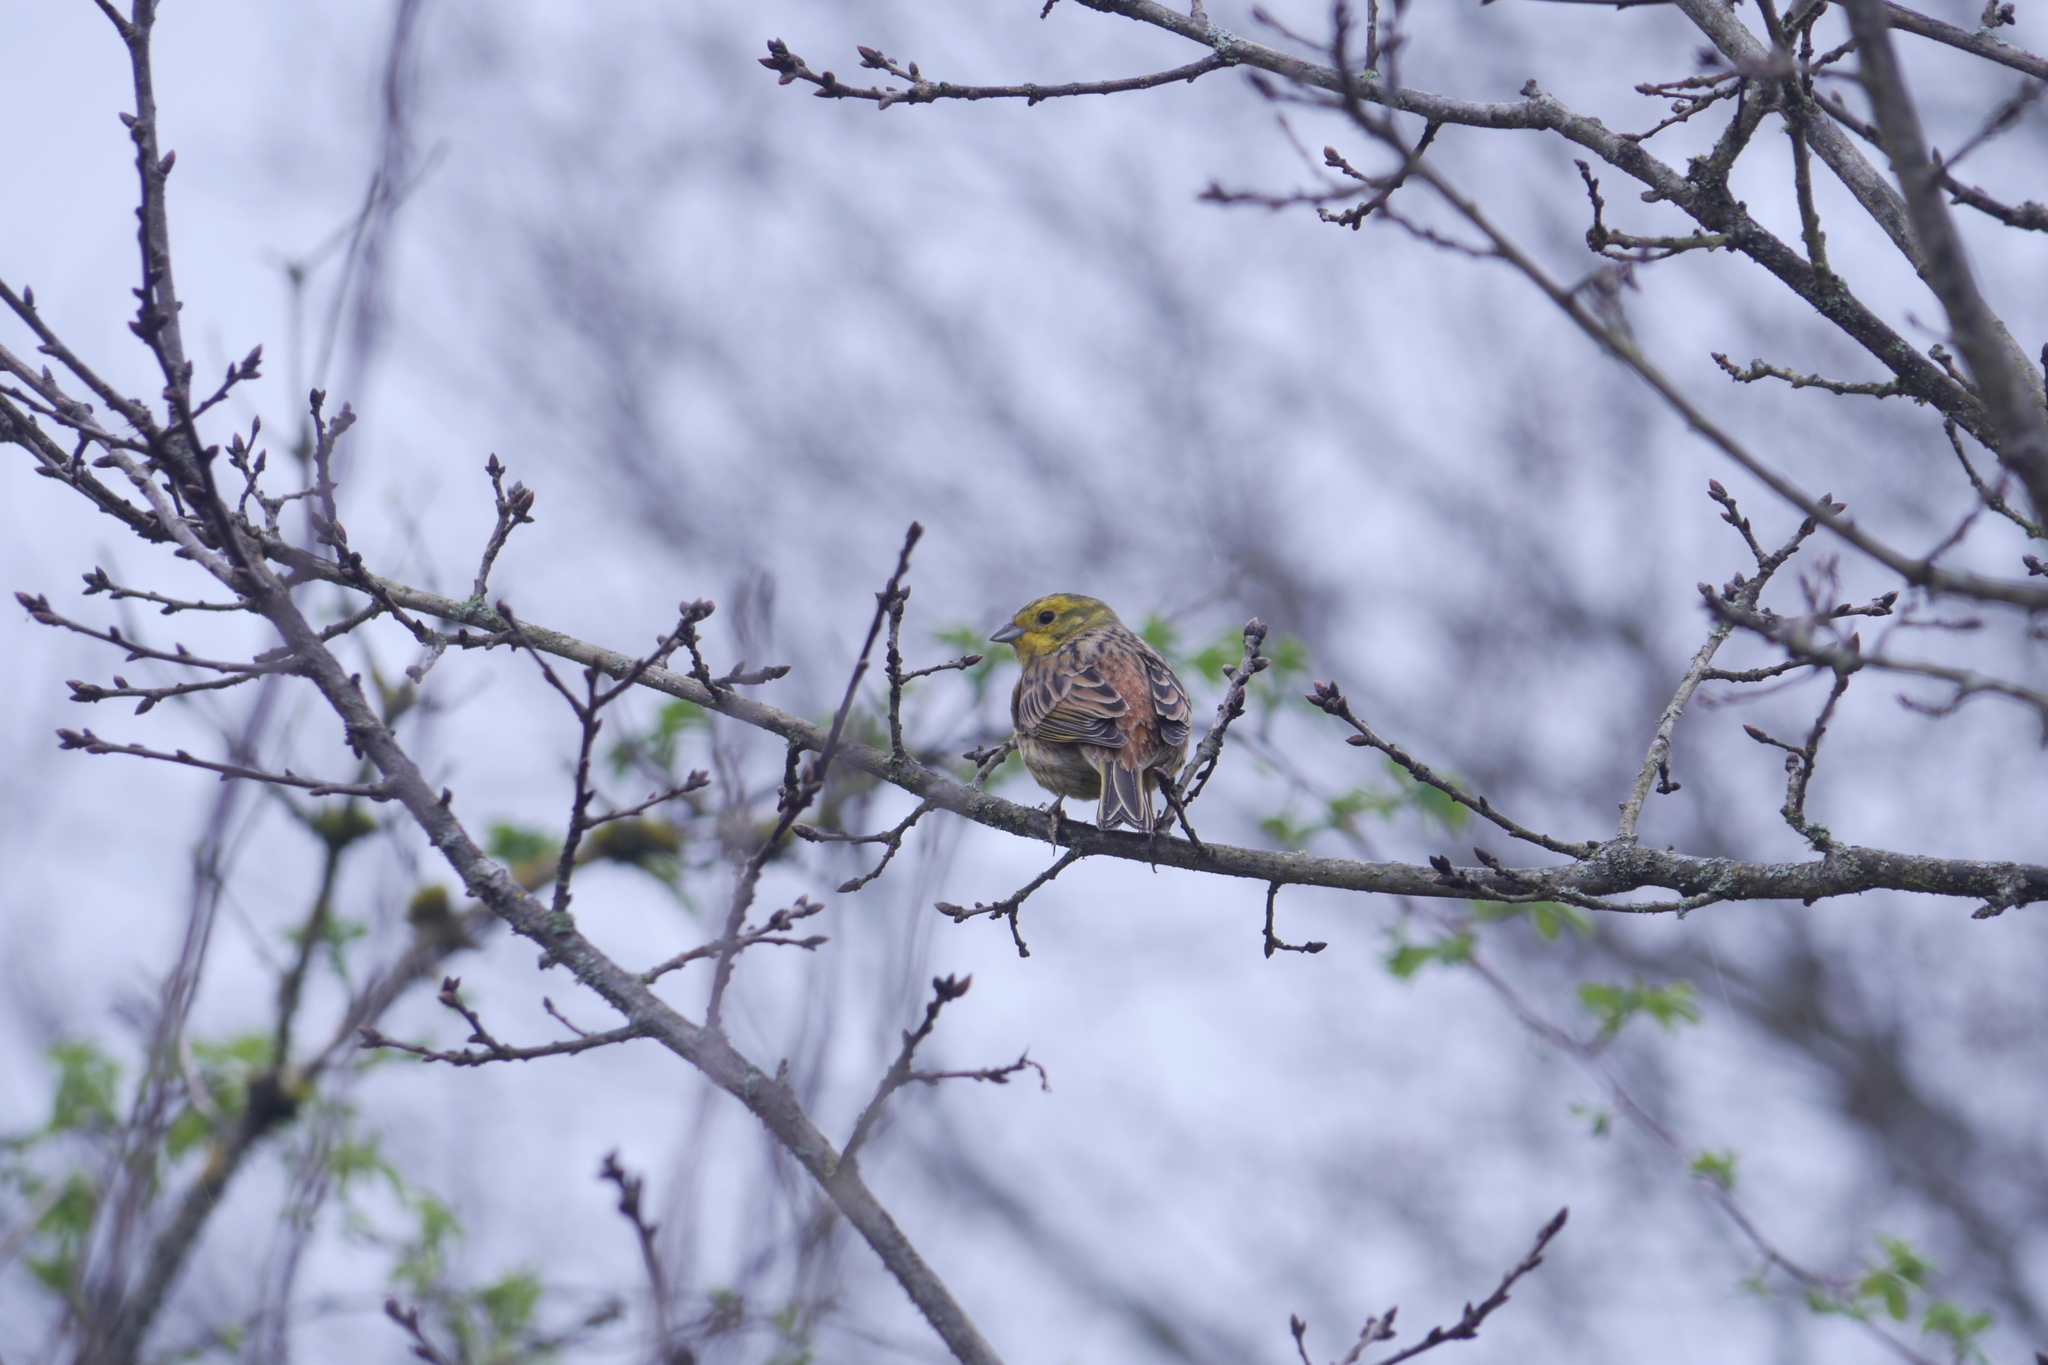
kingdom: Animalia
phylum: Chordata
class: Aves
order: Passeriformes
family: Emberizidae
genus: Emberiza
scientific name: Emberiza citrinella
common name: Yellowhammer
